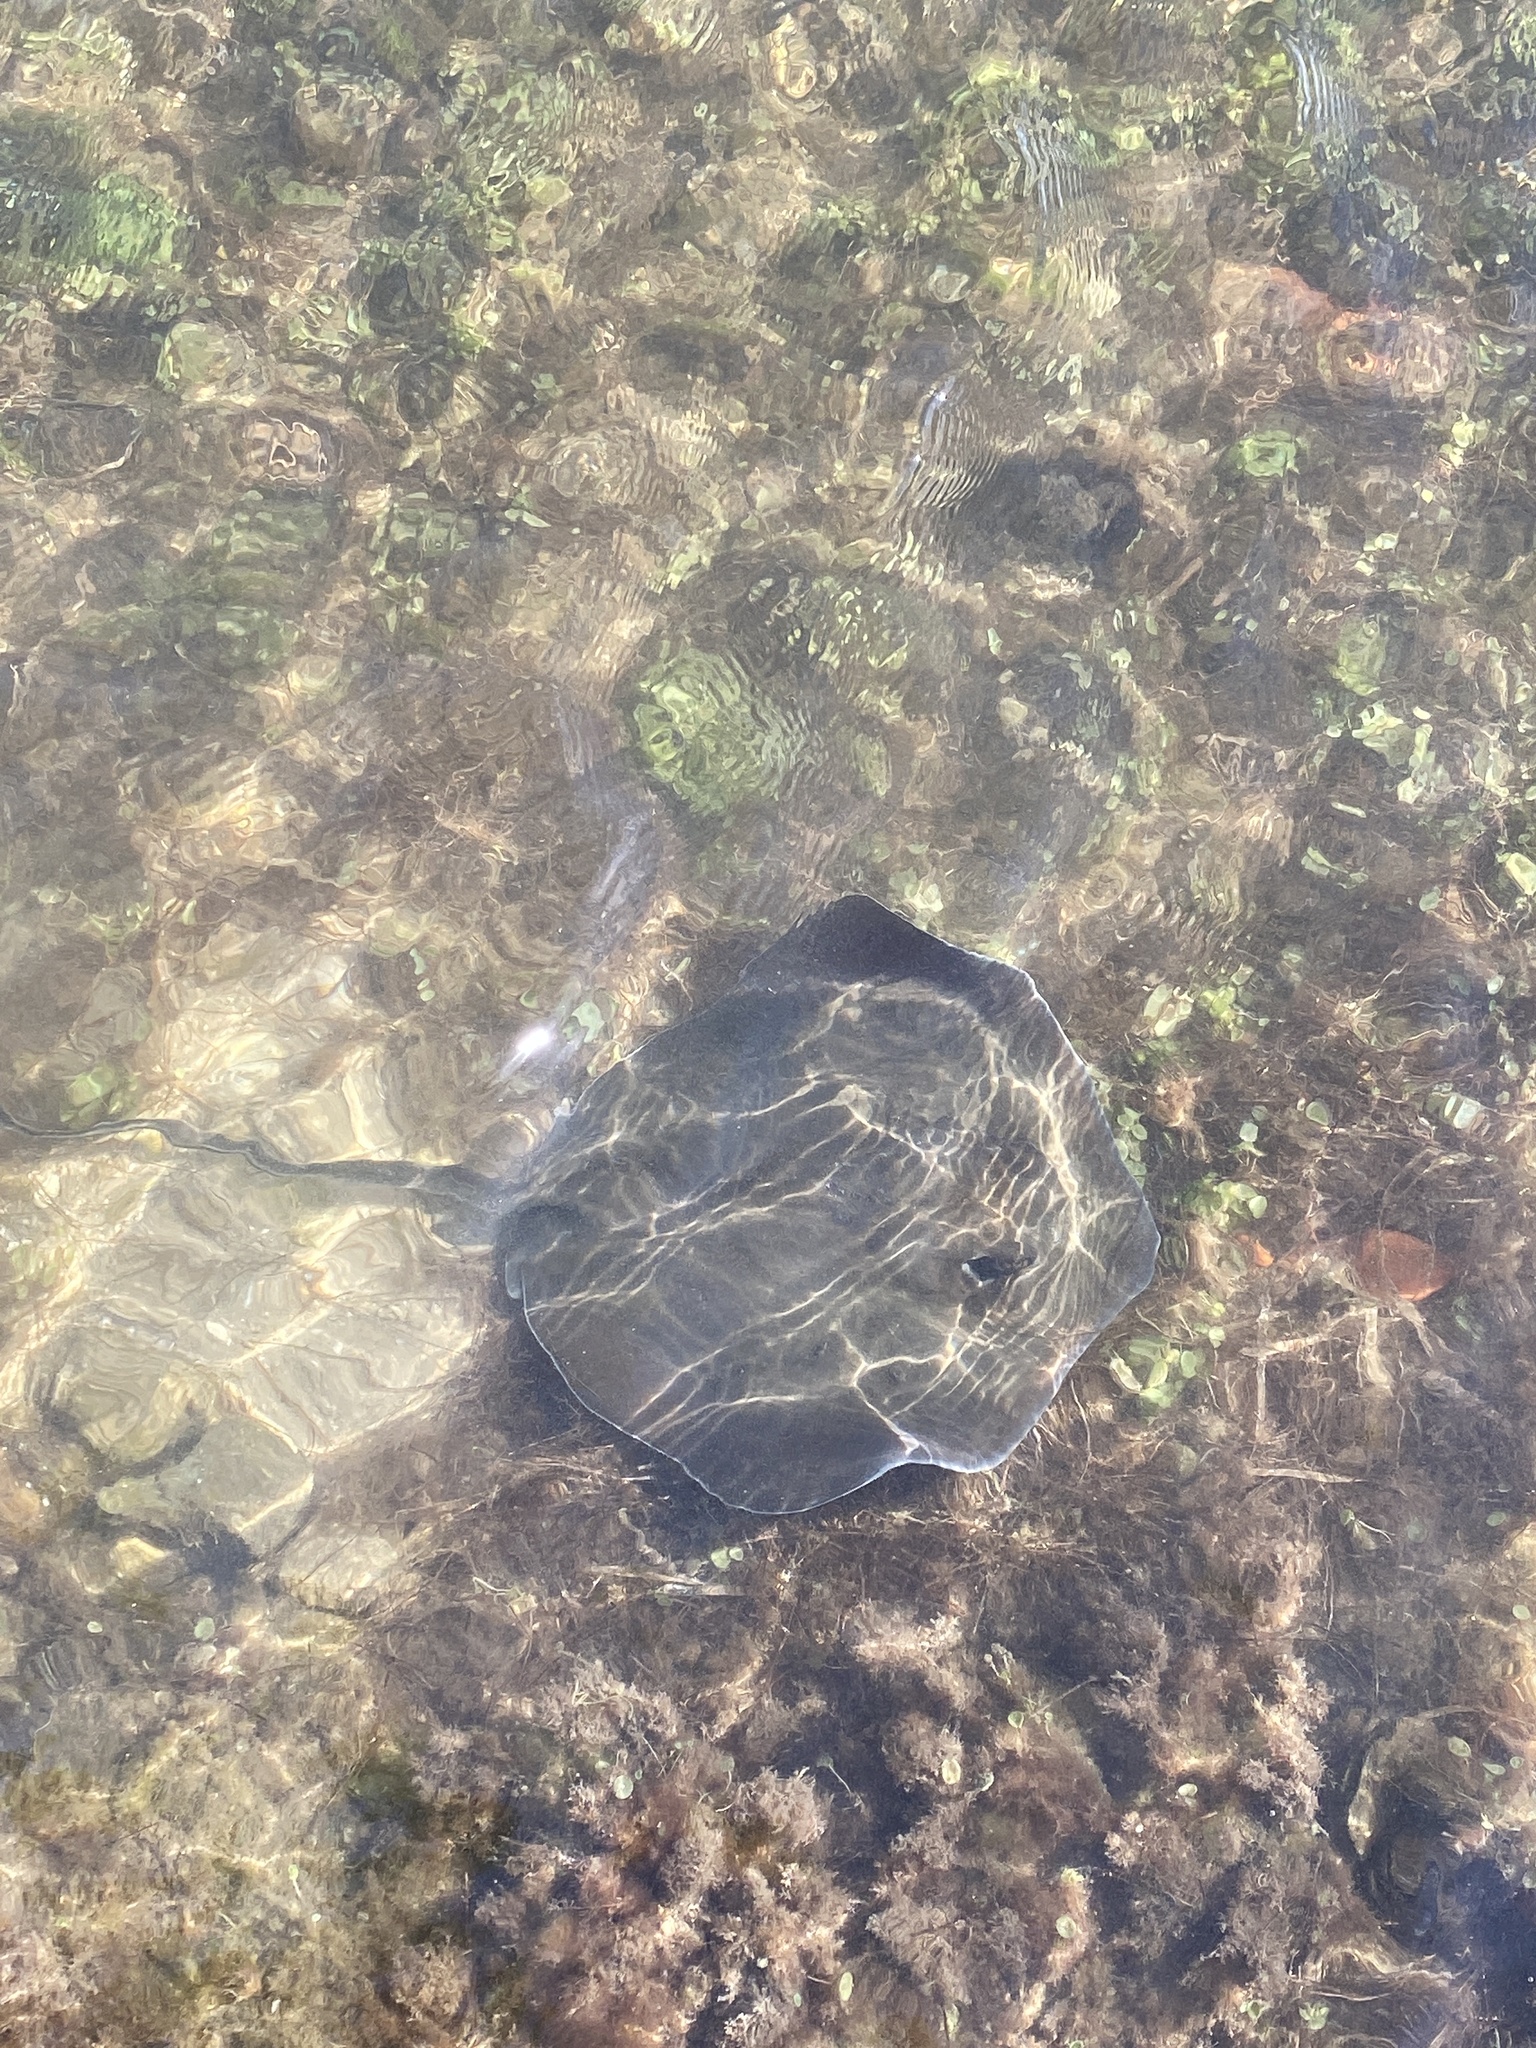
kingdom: Animalia
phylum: Chordata
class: Elasmobranchii
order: Myliobatiformes
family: Dasyatidae
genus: Hypanus
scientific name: Hypanus
